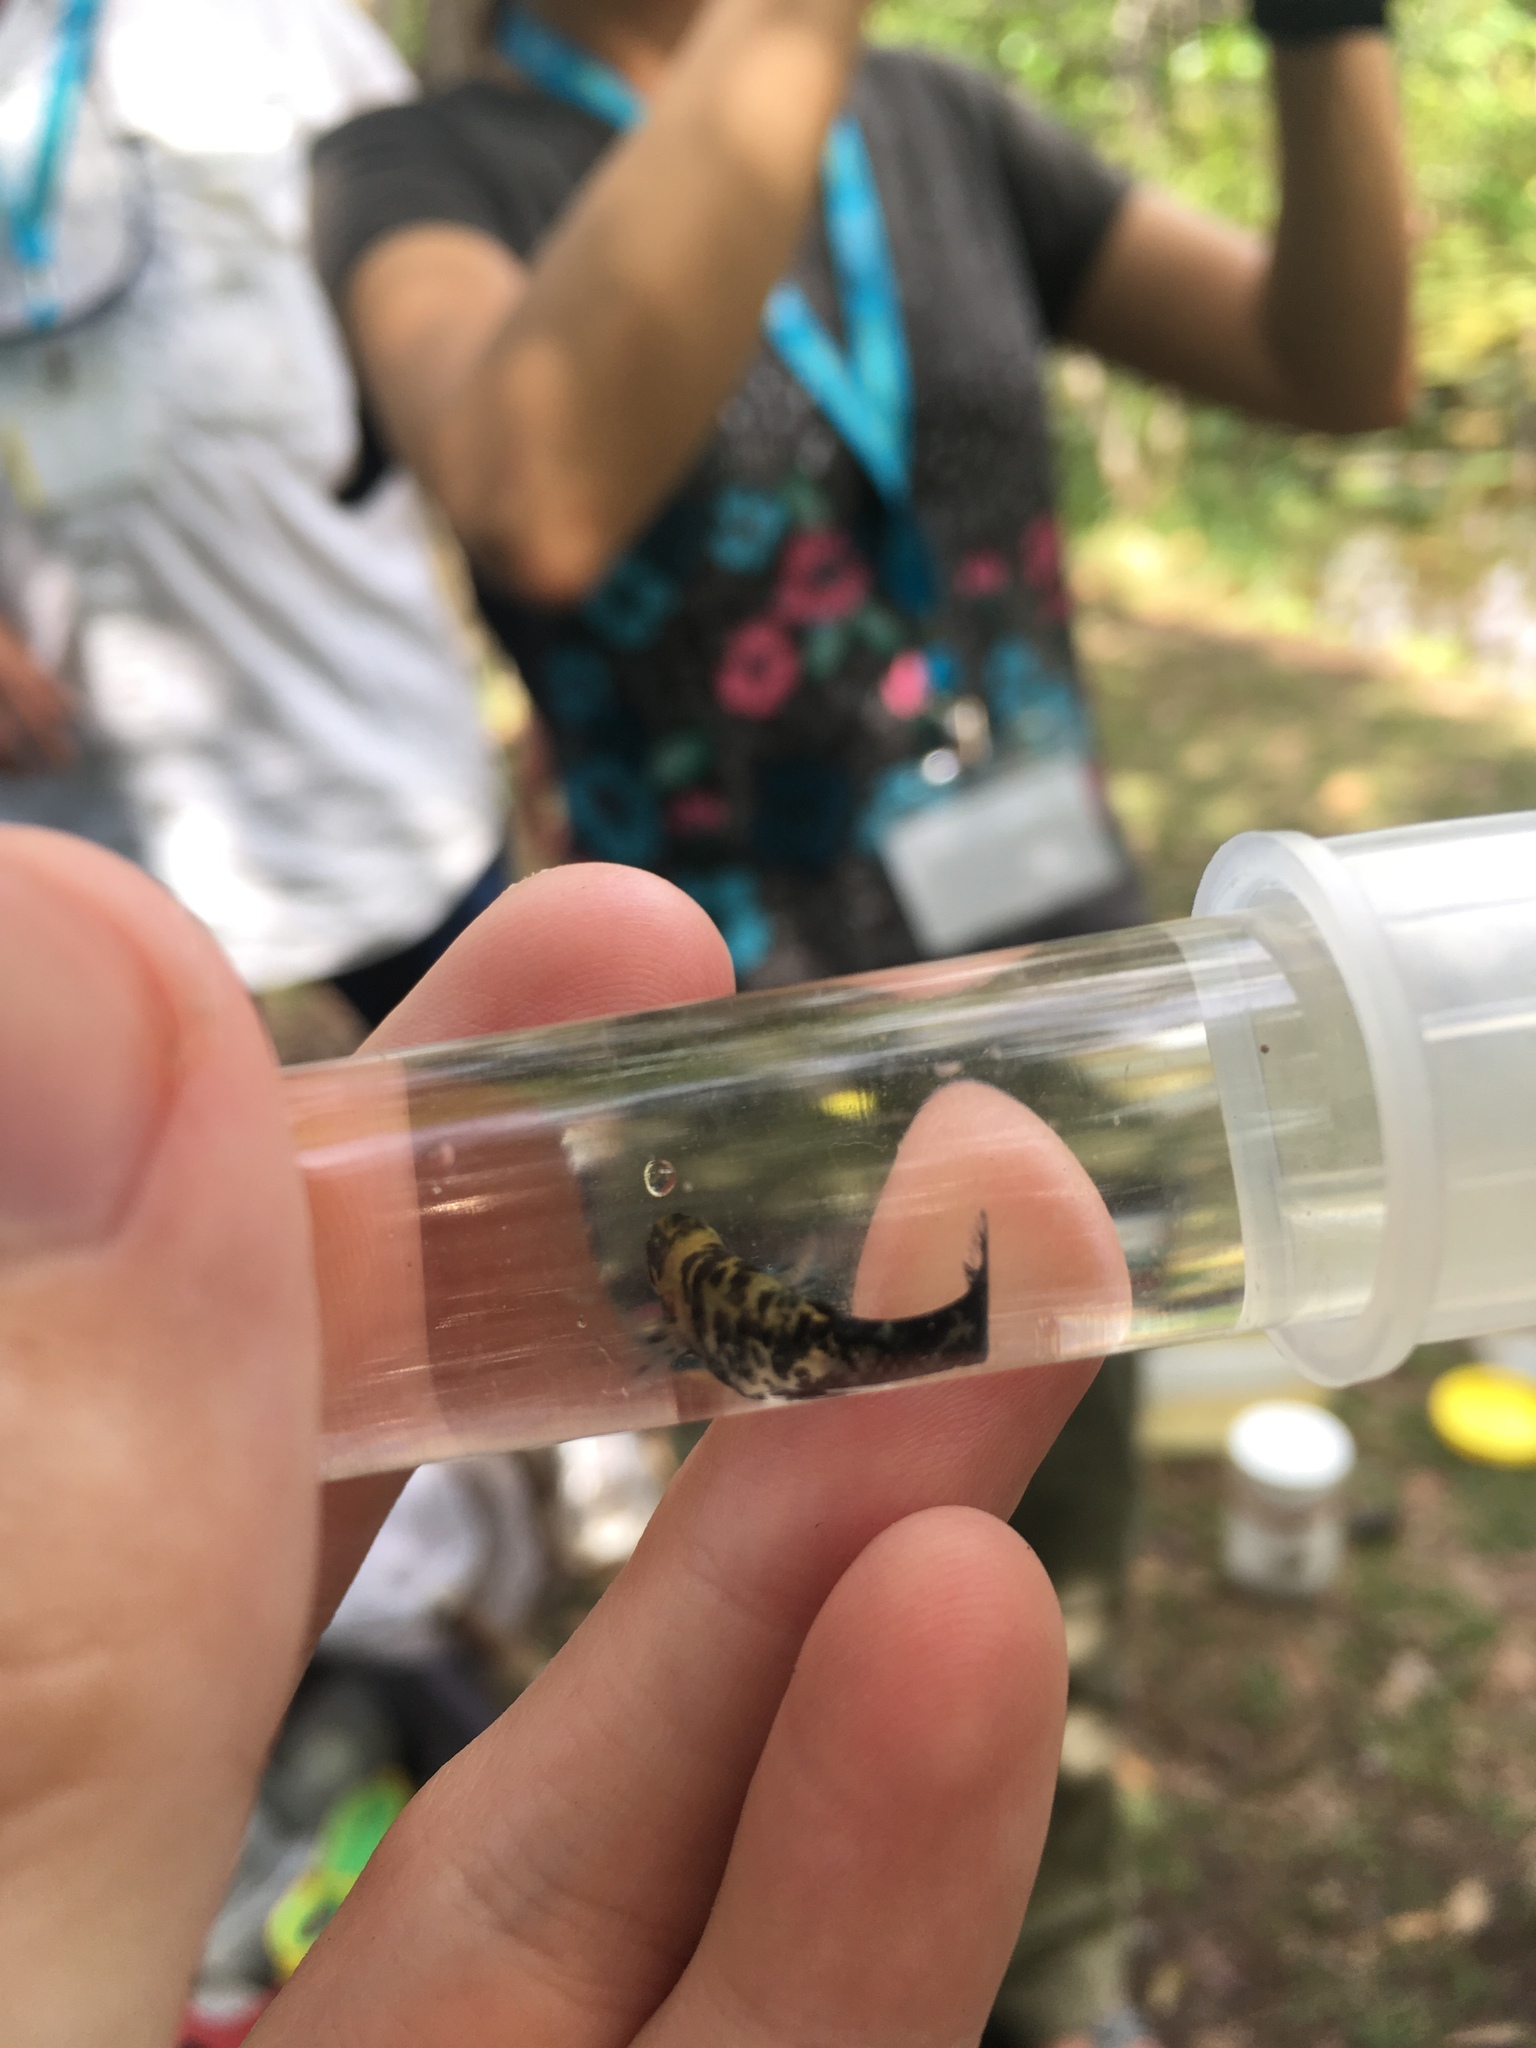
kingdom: Animalia
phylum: Chordata
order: Cyprinodontiformes
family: Poeciliidae
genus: Gambusia
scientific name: Gambusia holbrooki
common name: Eastern mosquitofish
